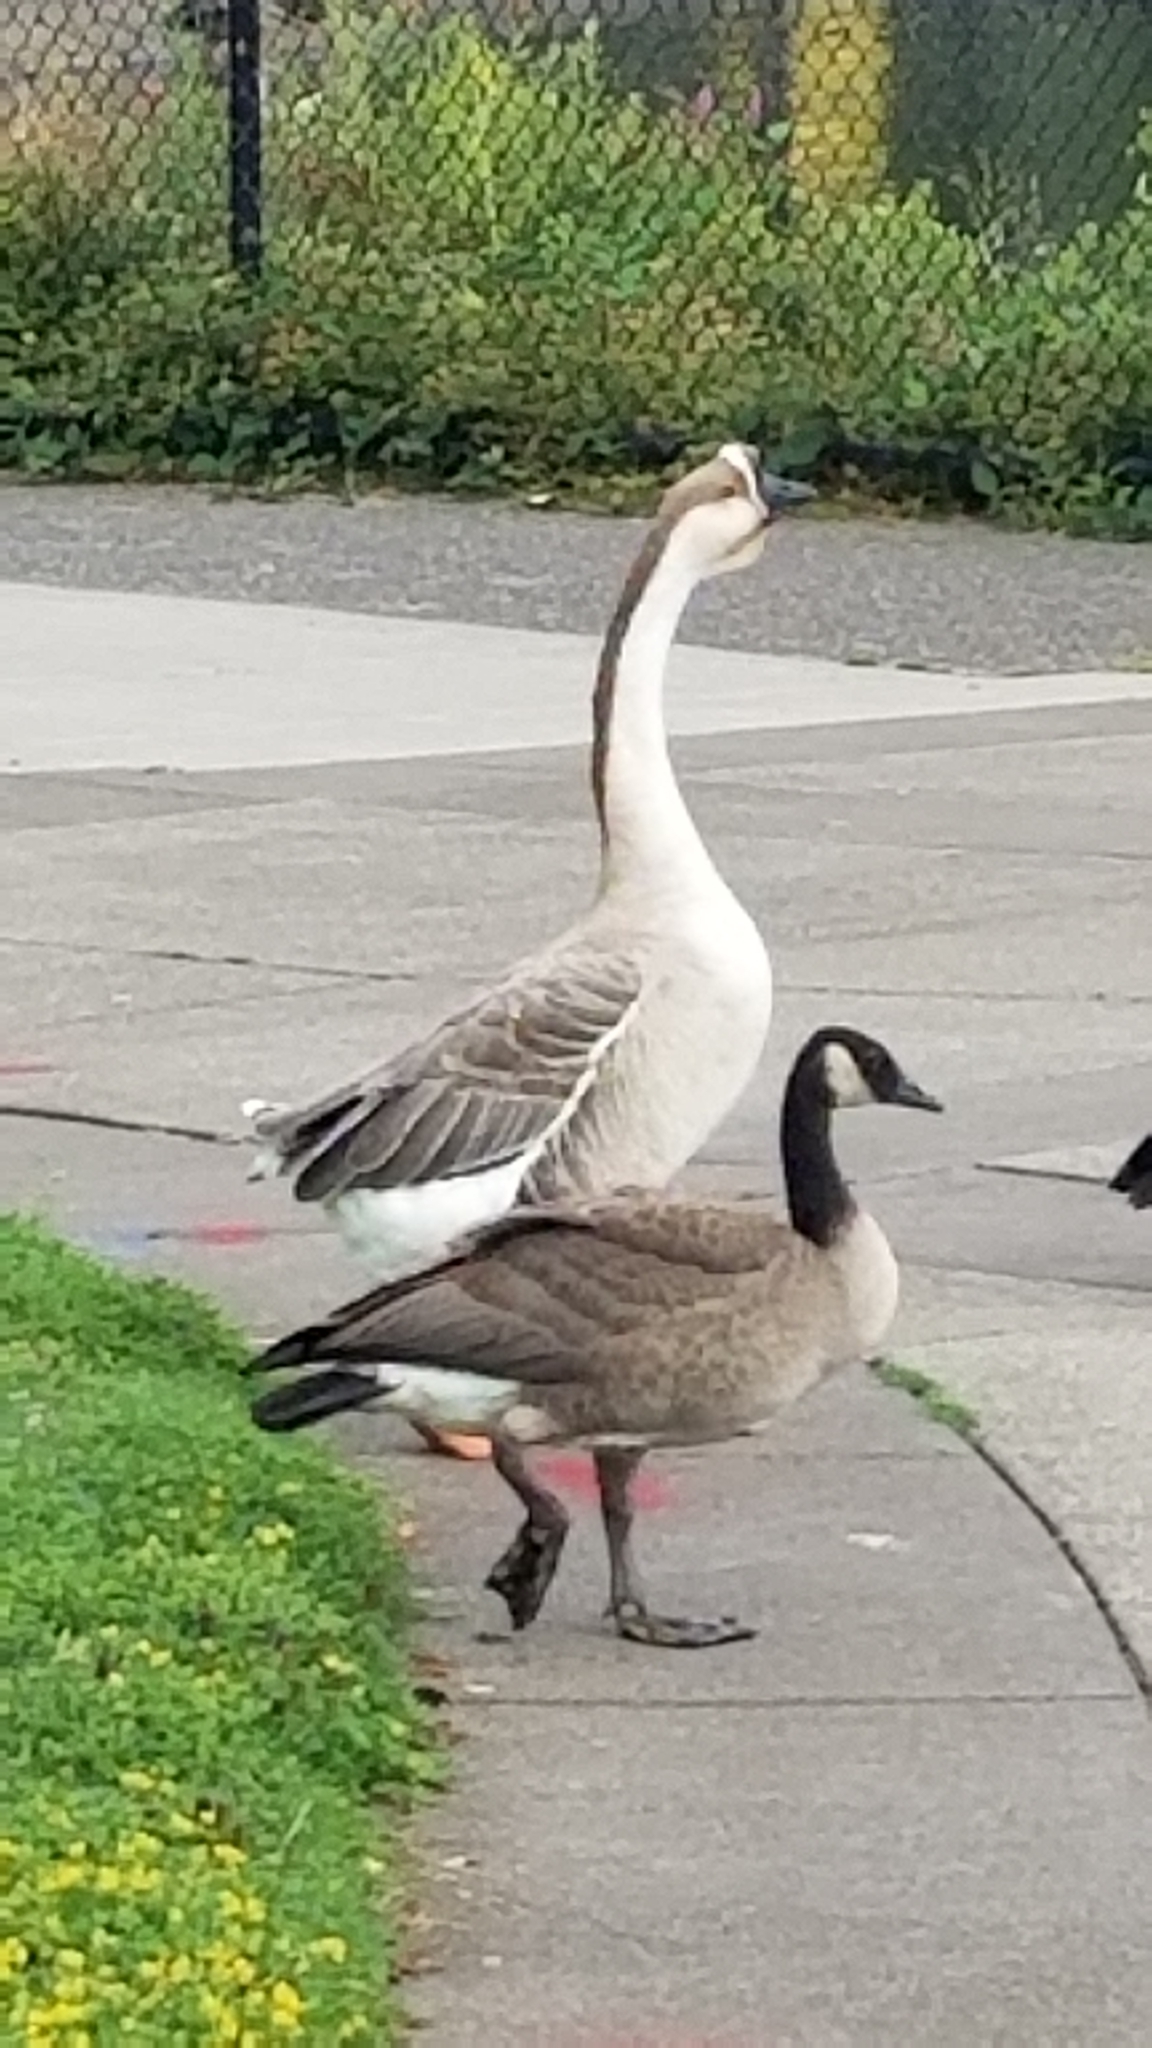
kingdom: Animalia
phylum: Chordata
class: Aves
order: Anseriformes
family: Anatidae
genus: Anser
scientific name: Anser cygnoides
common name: Swan goose
